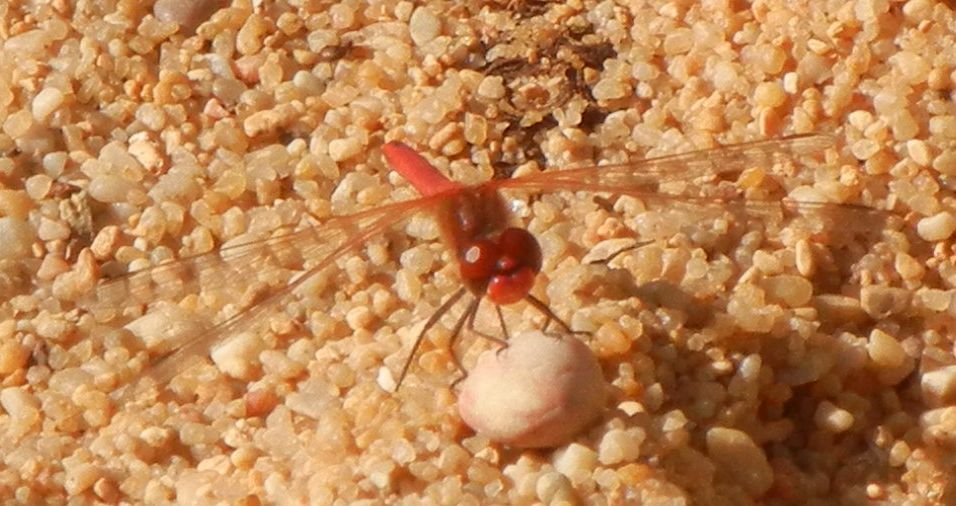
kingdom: Animalia
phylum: Arthropoda
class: Insecta
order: Odonata
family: Libellulidae
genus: Sympetrum
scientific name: Sympetrum fonscolombii
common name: Red-veined darter
